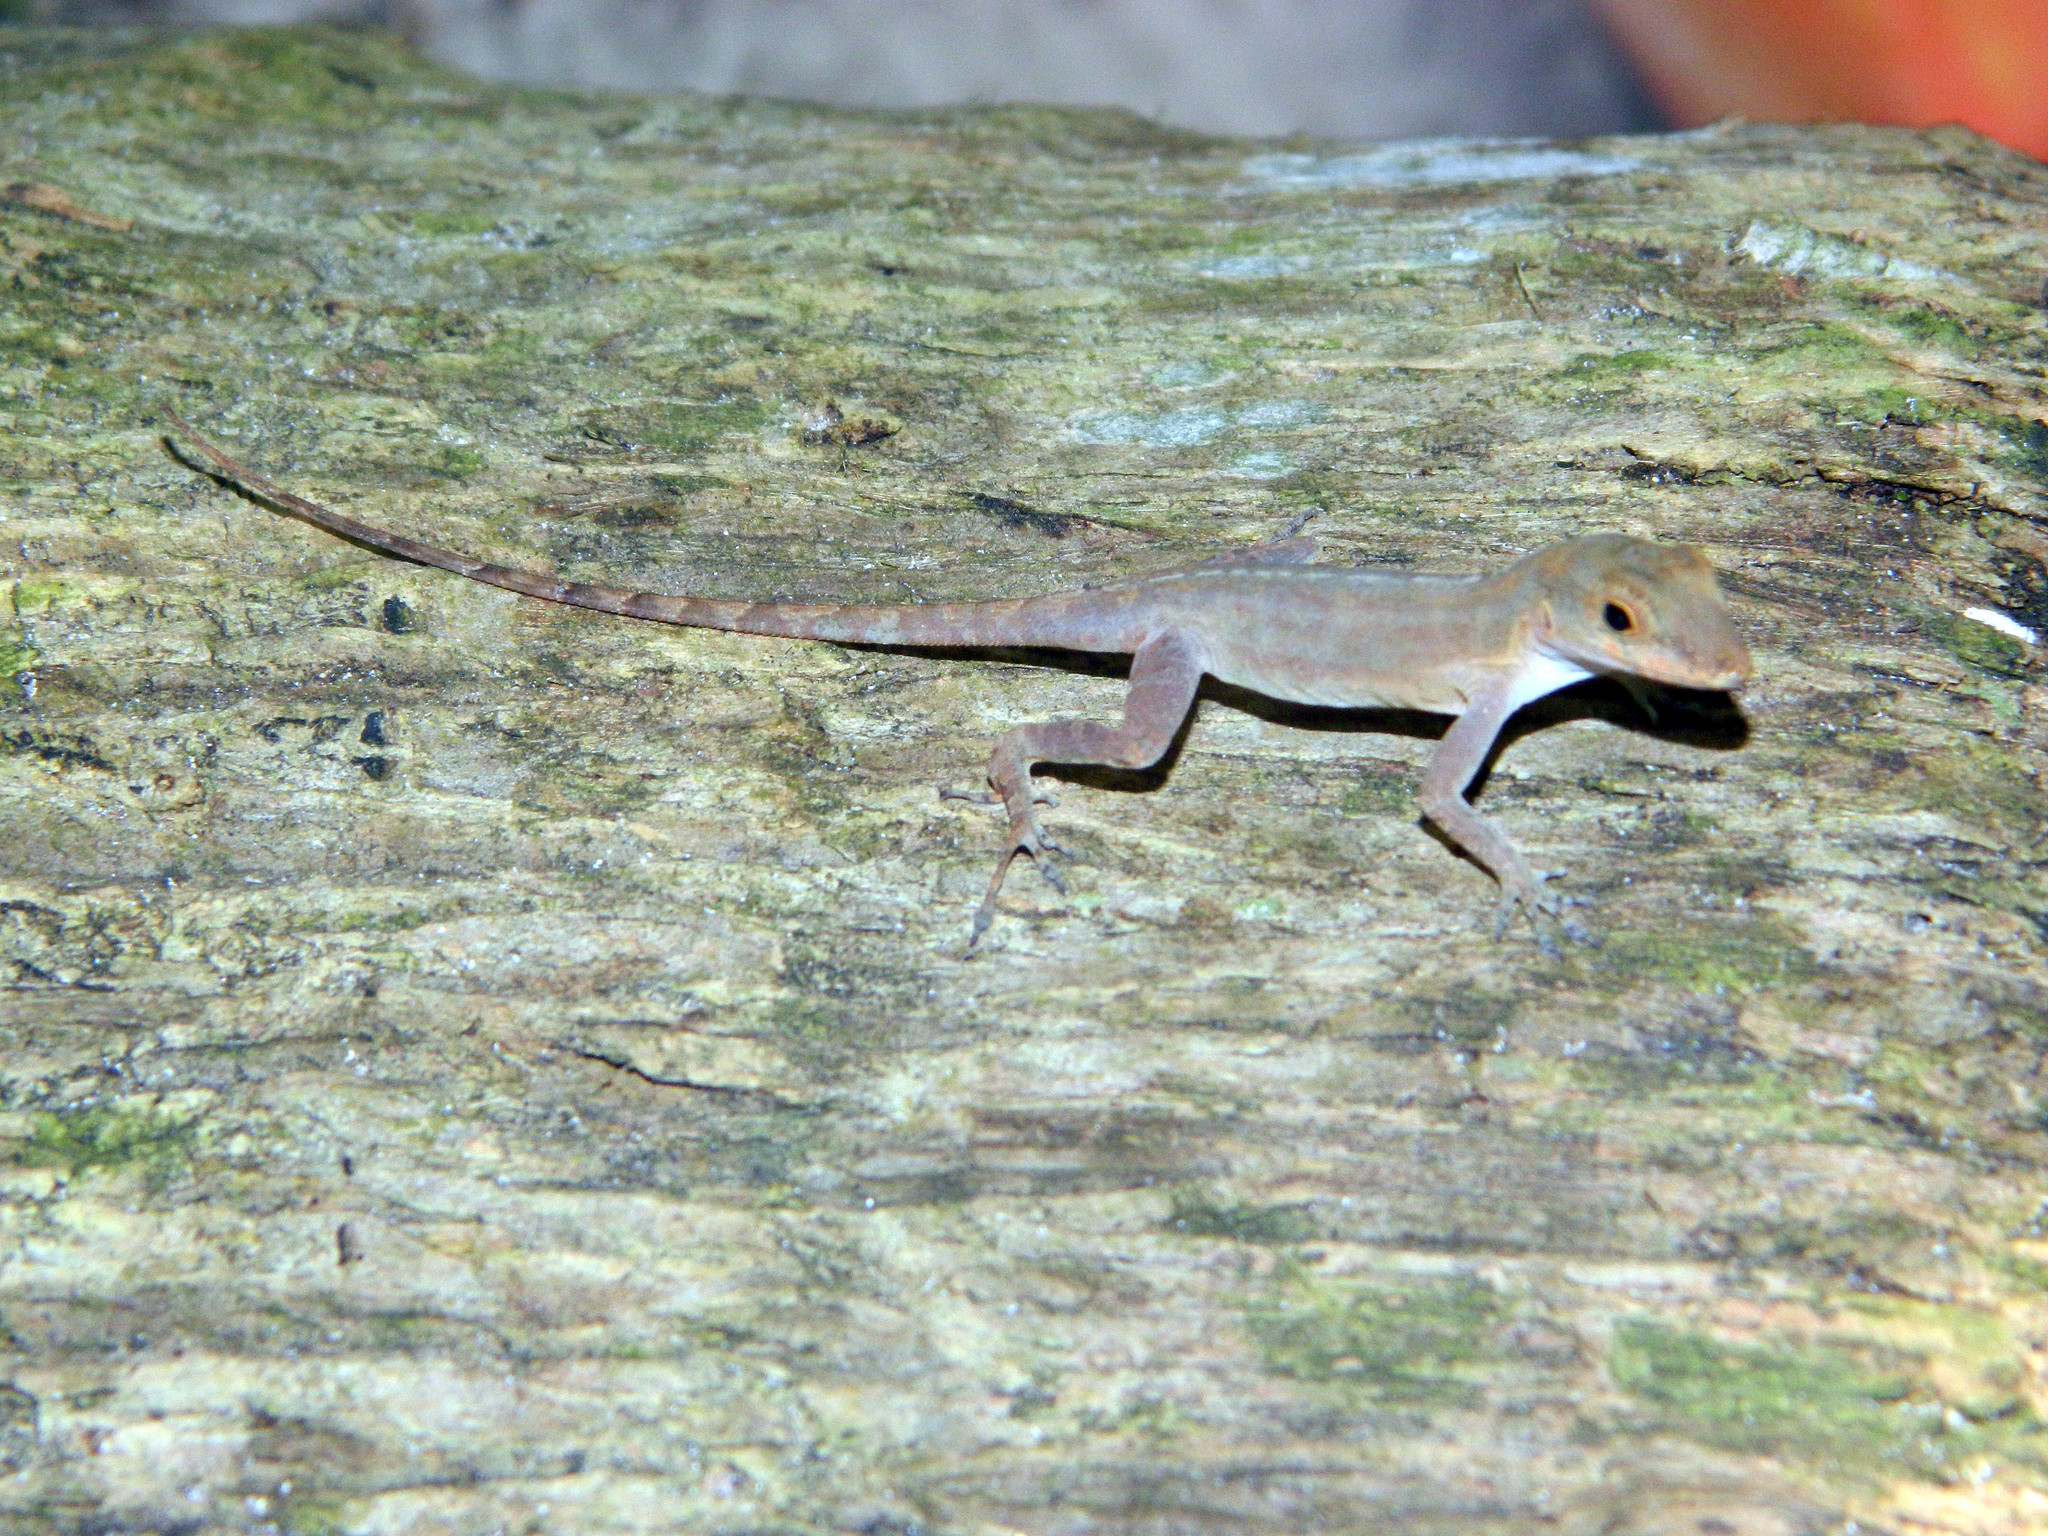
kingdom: Animalia
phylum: Chordata
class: Squamata
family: Dactyloidae
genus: Anolis
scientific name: Anolis cristatellus
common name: Crested anole
